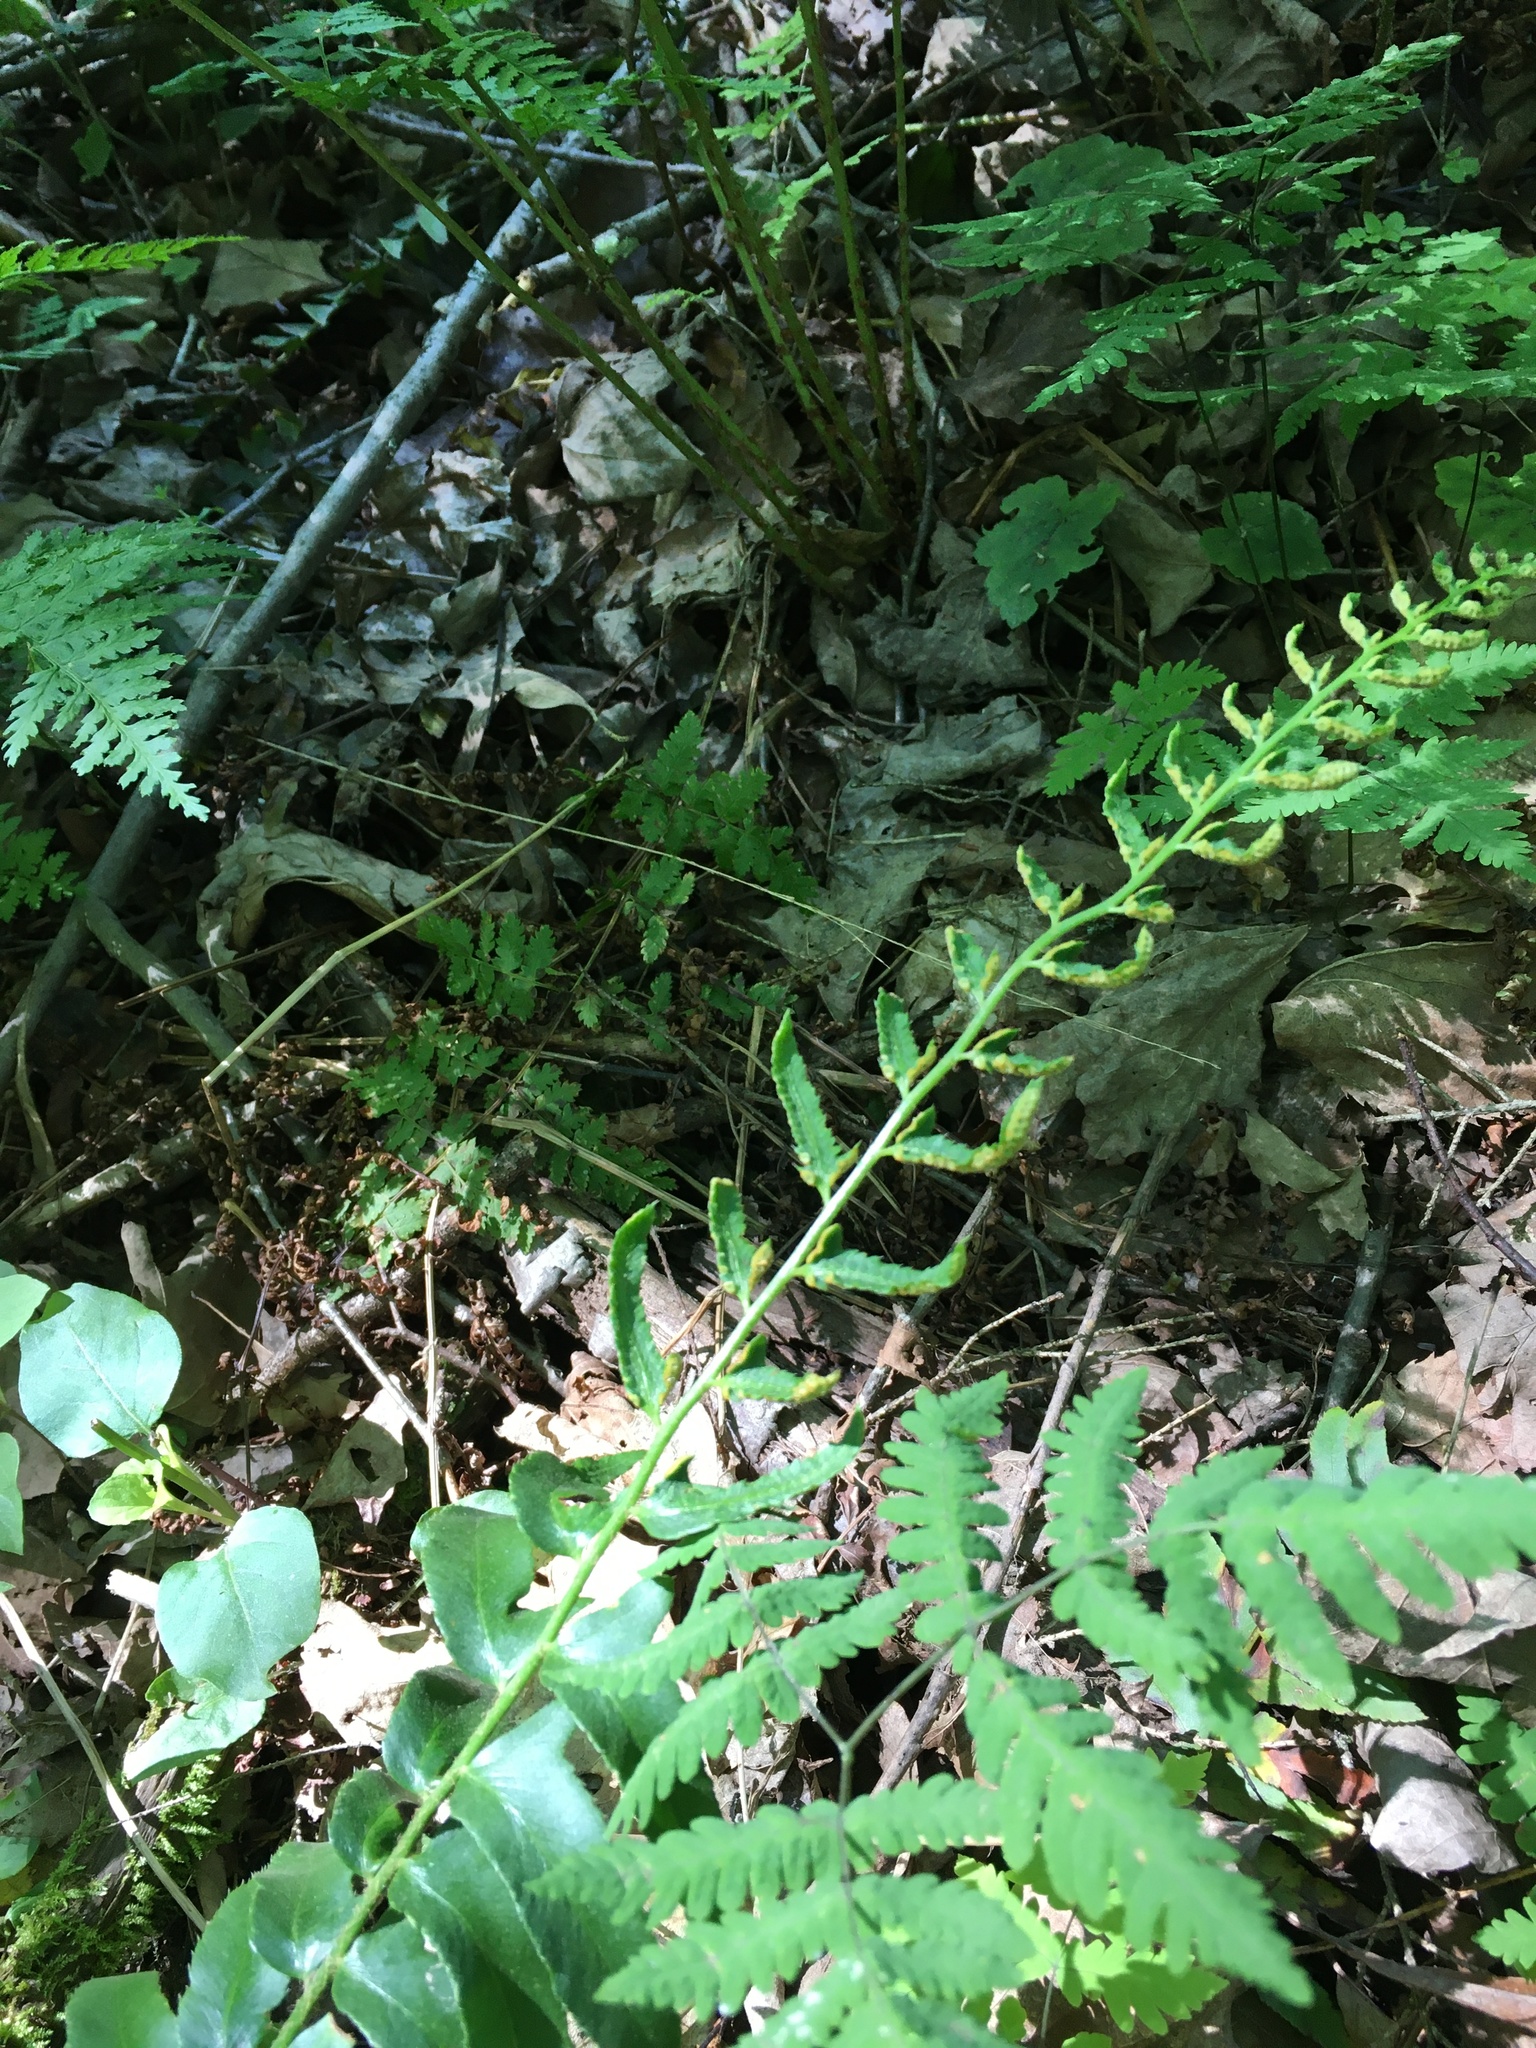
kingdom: Plantae
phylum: Tracheophyta
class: Polypodiopsida
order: Polypodiales
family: Dryopteridaceae
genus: Polystichum
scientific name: Polystichum acrostichoides
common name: Christmas fern
